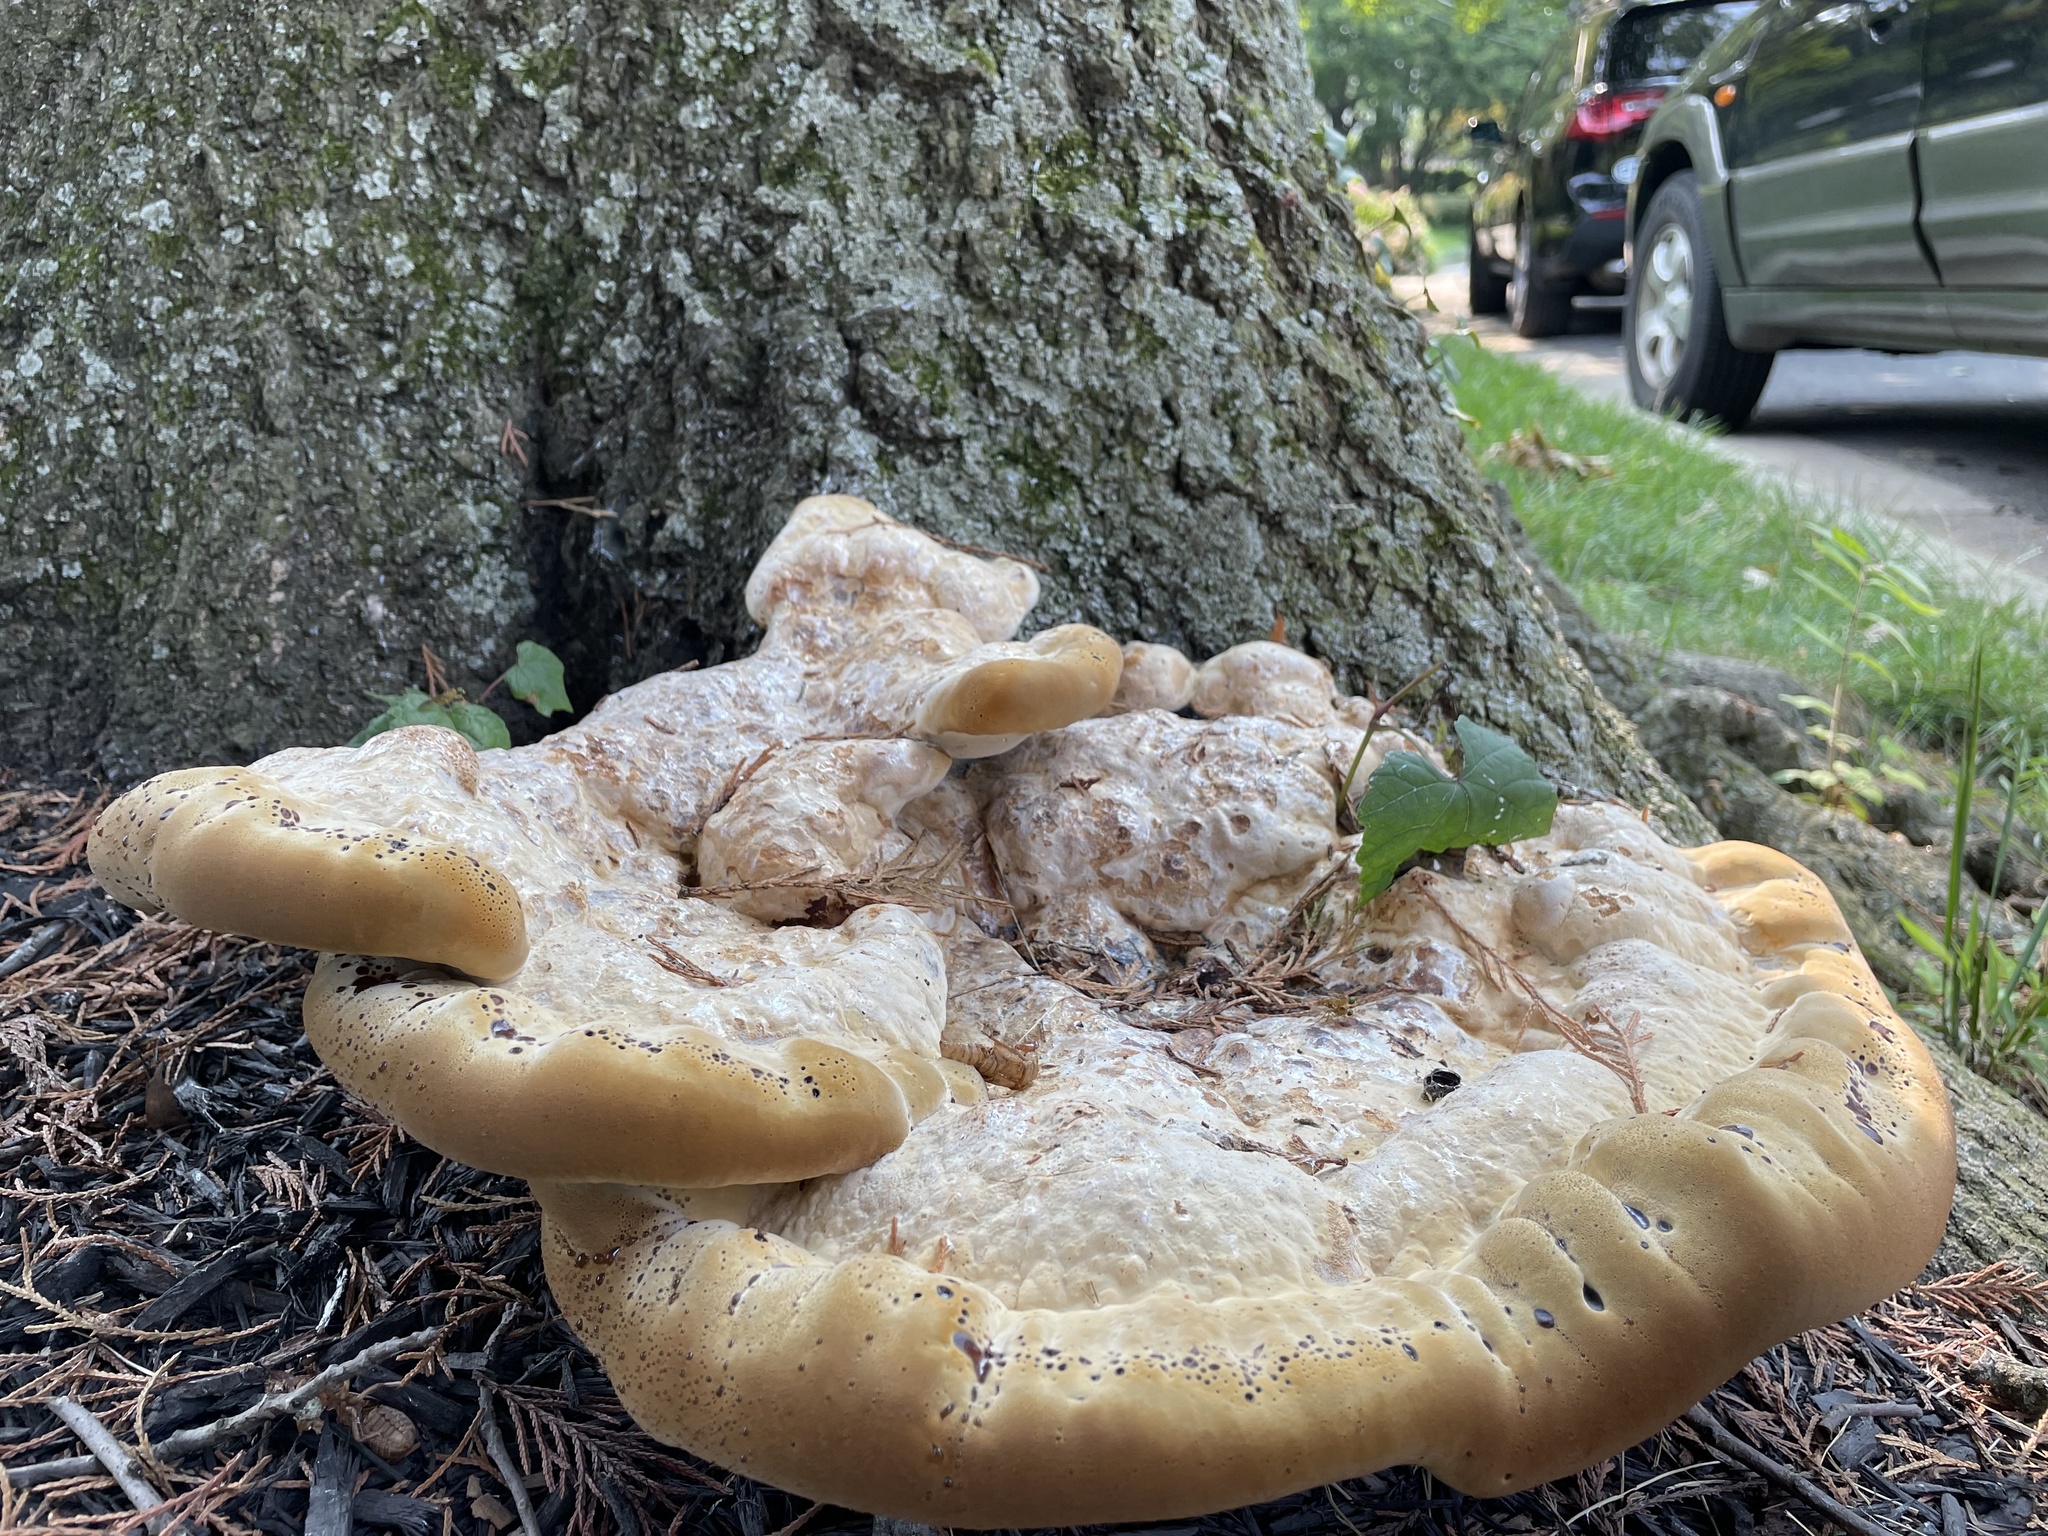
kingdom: Fungi
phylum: Basidiomycota
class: Agaricomycetes
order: Hymenochaetales
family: Hymenochaetaceae
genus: Pseudoinonotus
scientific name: Pseudoinonotus dryadeus
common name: Oak bracket
